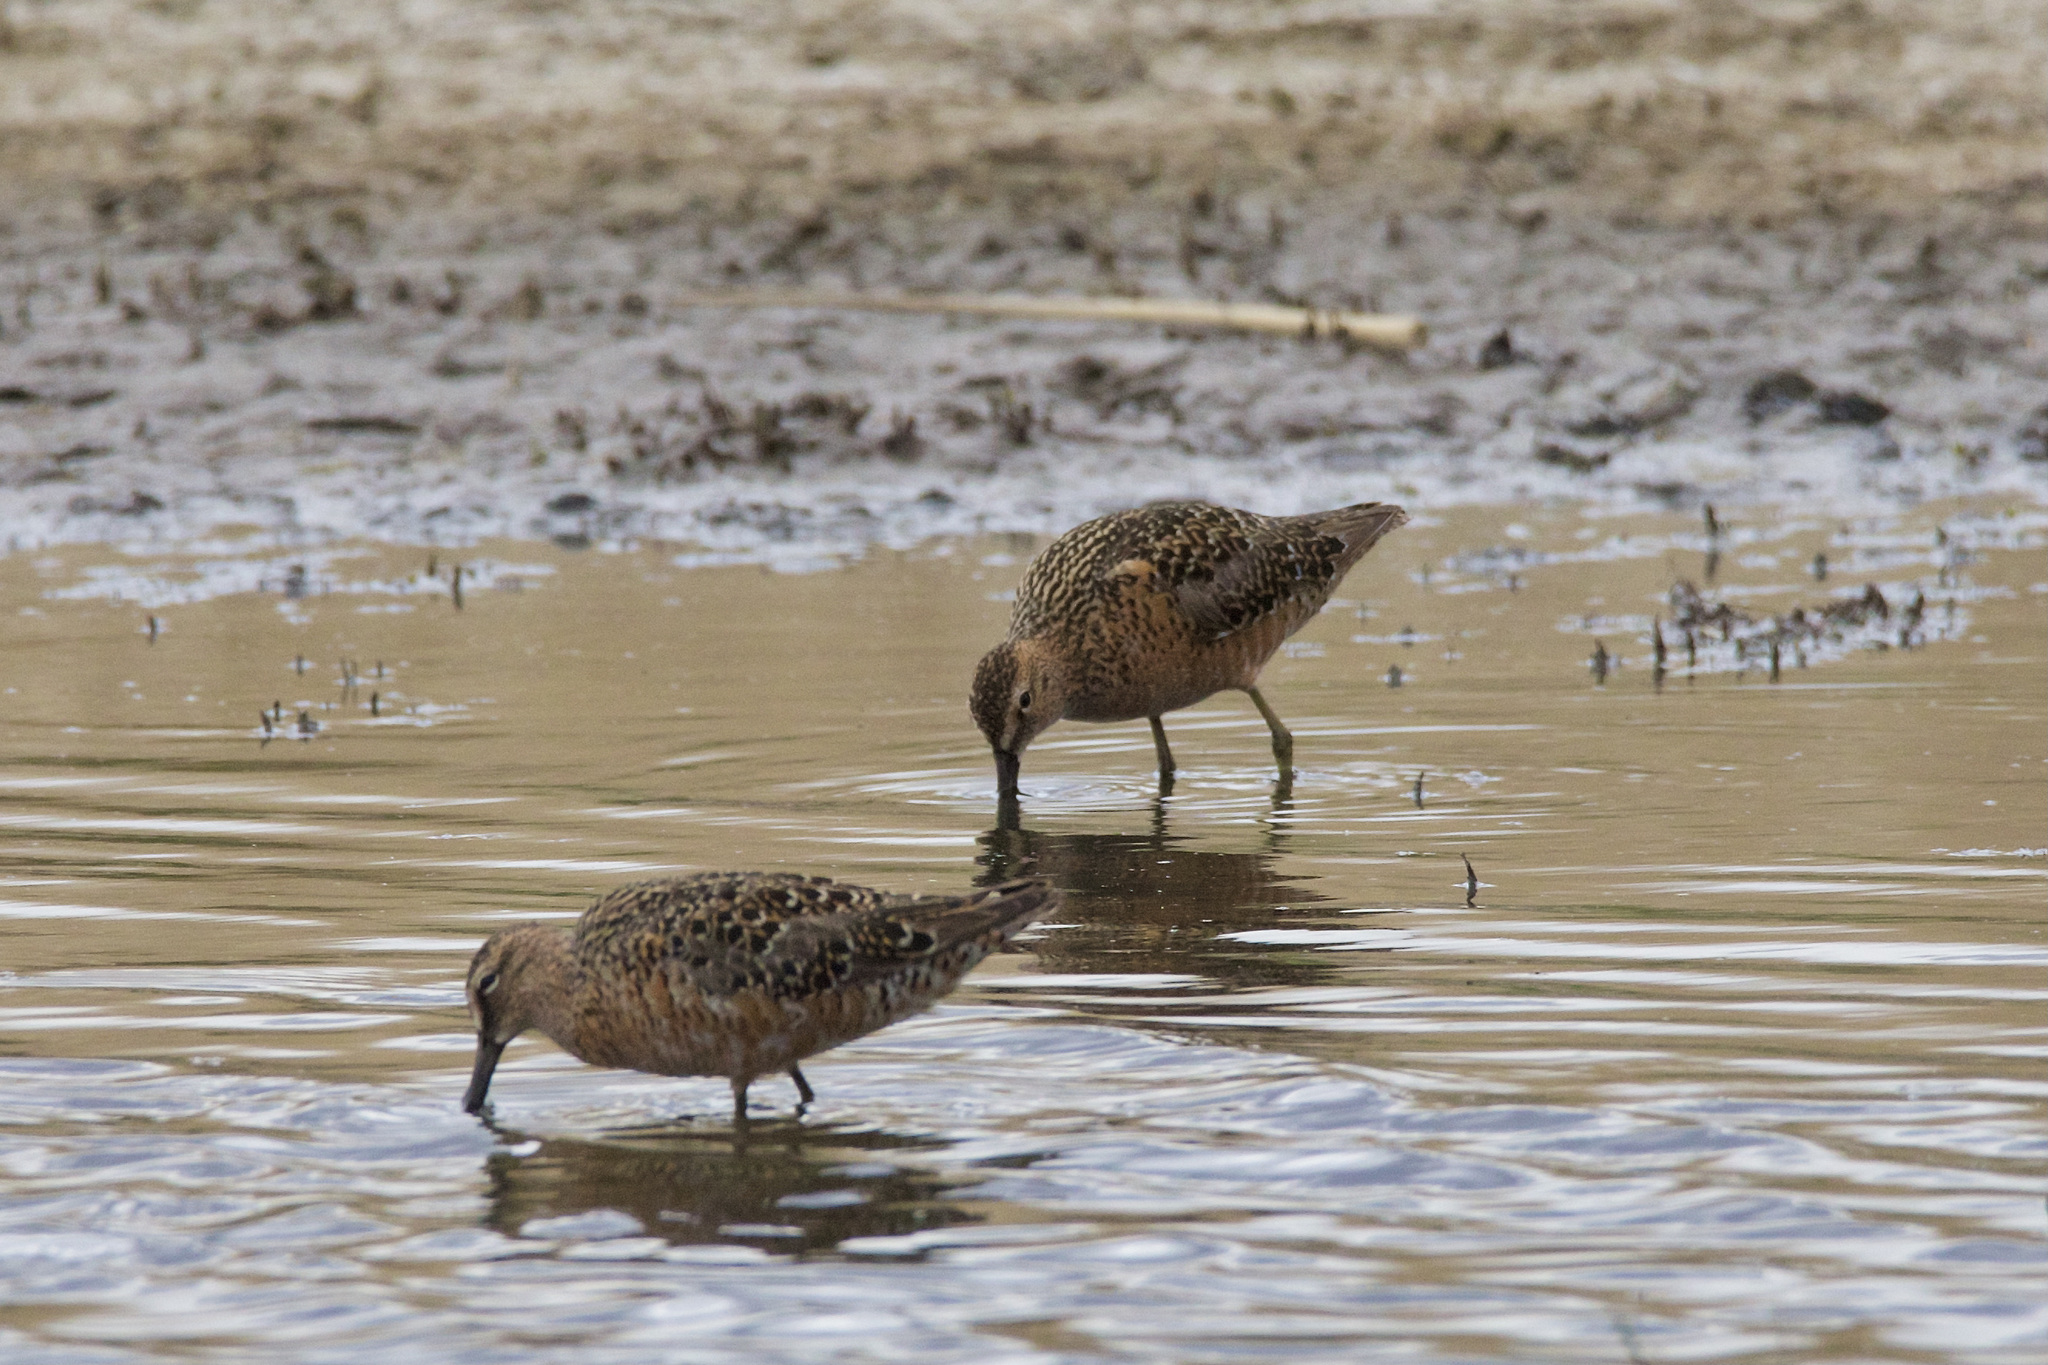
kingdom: Animalia
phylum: Chordata
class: Aves
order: Charadriiformes
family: Scolopacidae
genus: Limnodromus
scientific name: Limnodromus scolopaceus
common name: Long-billed dowitcher
